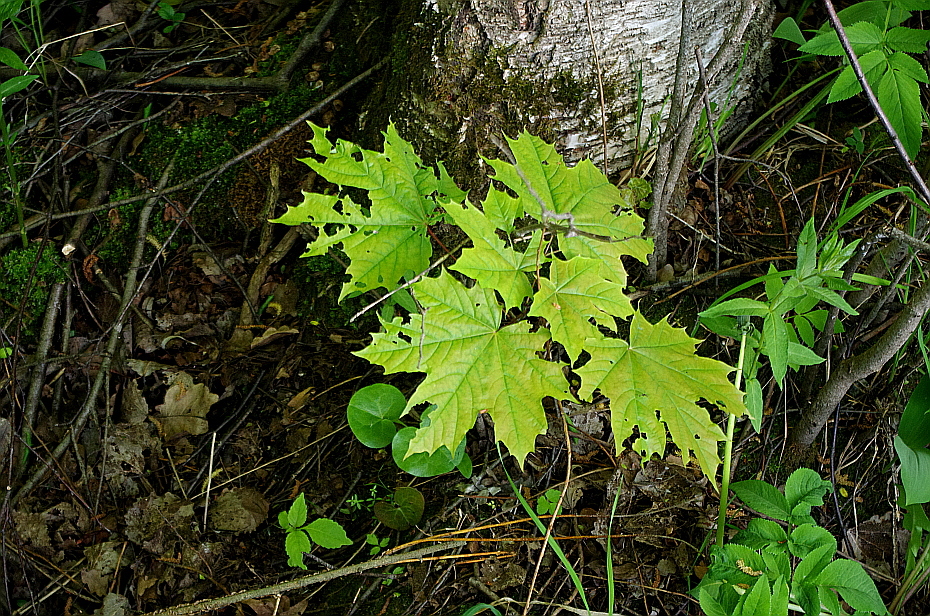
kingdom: Plantae
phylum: Tracheophyta
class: Magnoliopsida
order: Sapindales
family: Sapindaceae
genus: Acer
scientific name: Acer platanoides
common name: Norway maple
